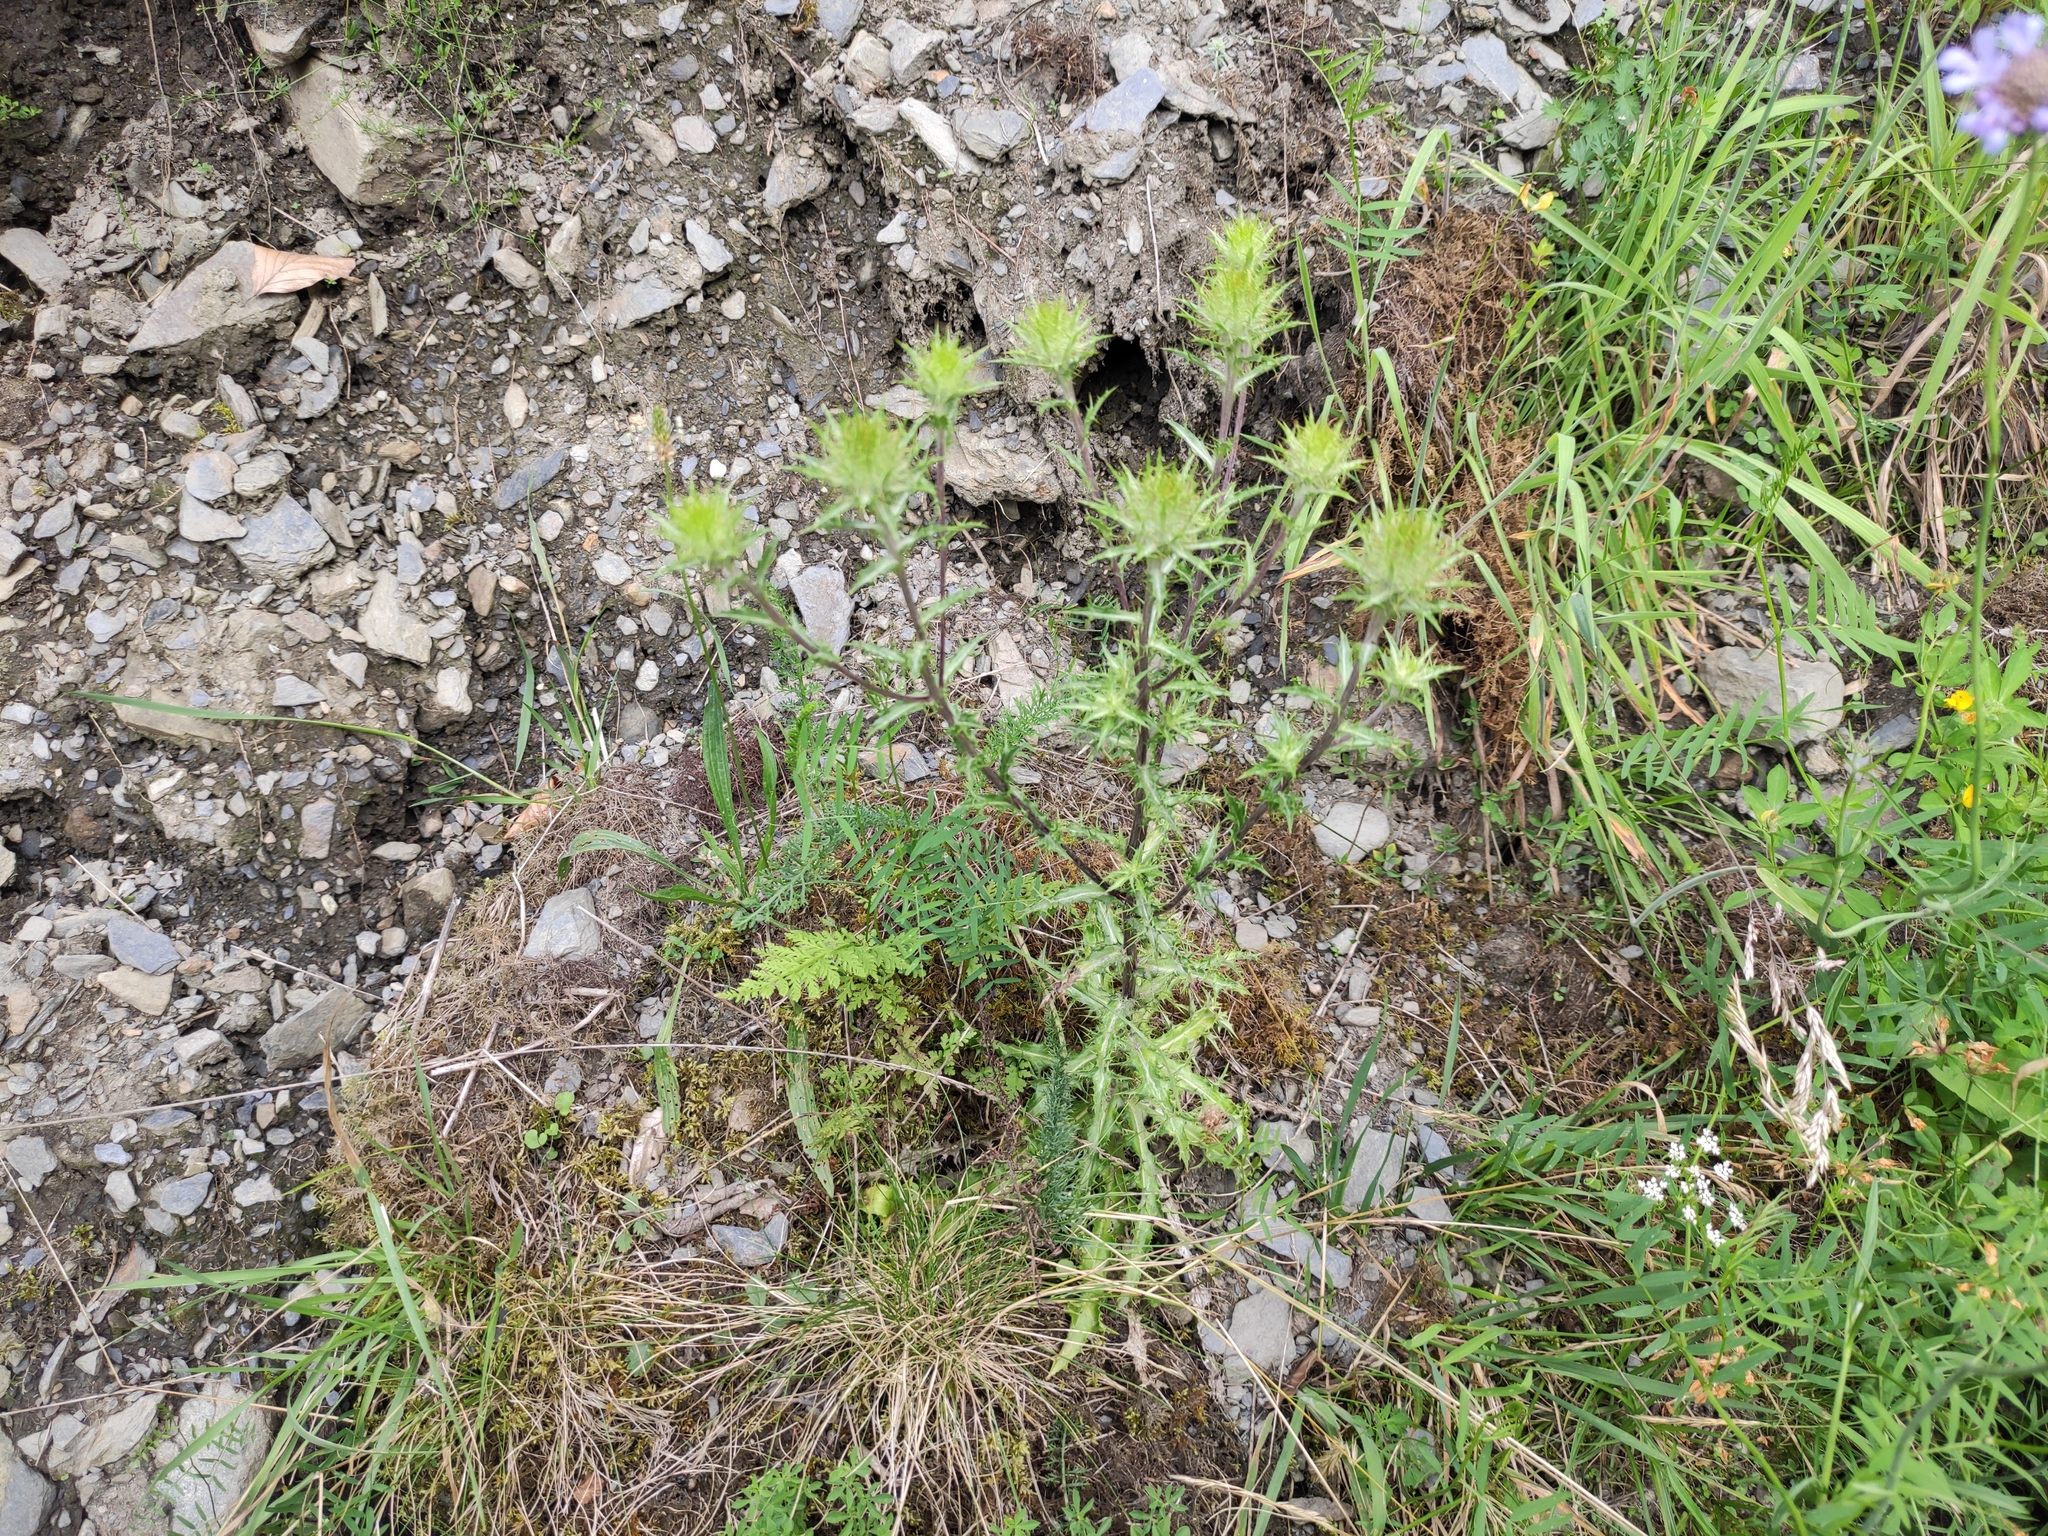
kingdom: Plantae
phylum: Tracheophyta
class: Magnoliopsida
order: Asterales
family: Asteraceae
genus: Carthamus
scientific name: Carthamus lanatus
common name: Downy safflower
